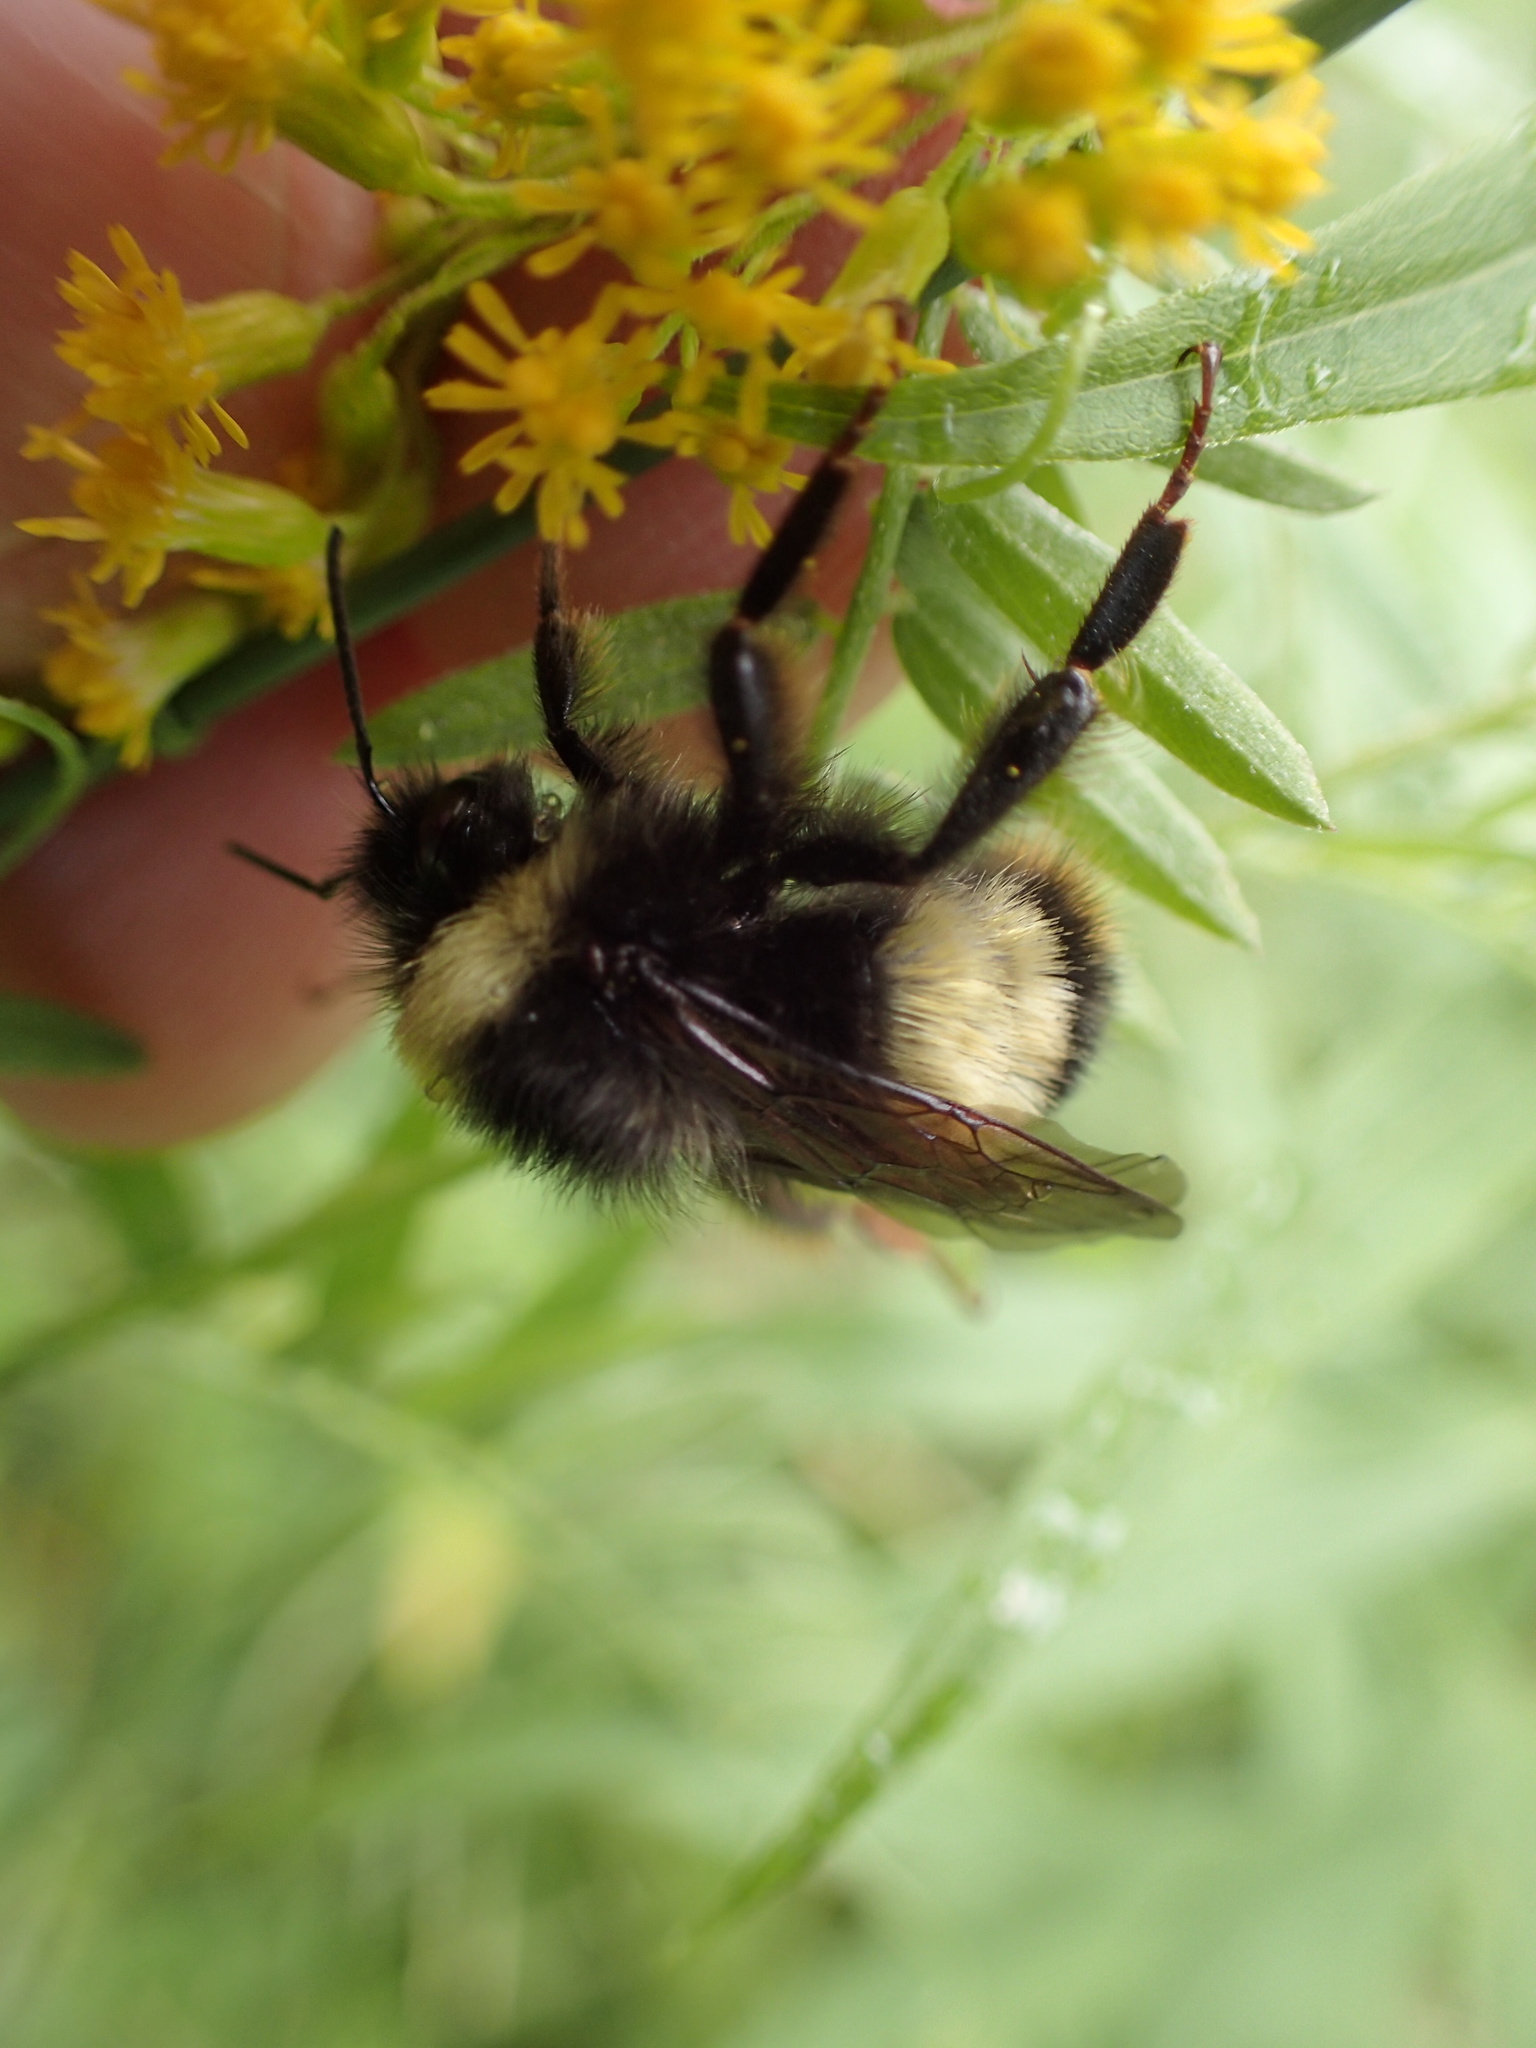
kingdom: Animalia
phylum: Arthropoda
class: Insecta
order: Hymenoptera
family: Apidae
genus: Bombus
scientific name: Bombus terricola
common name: Yellow-banded bumble bee
